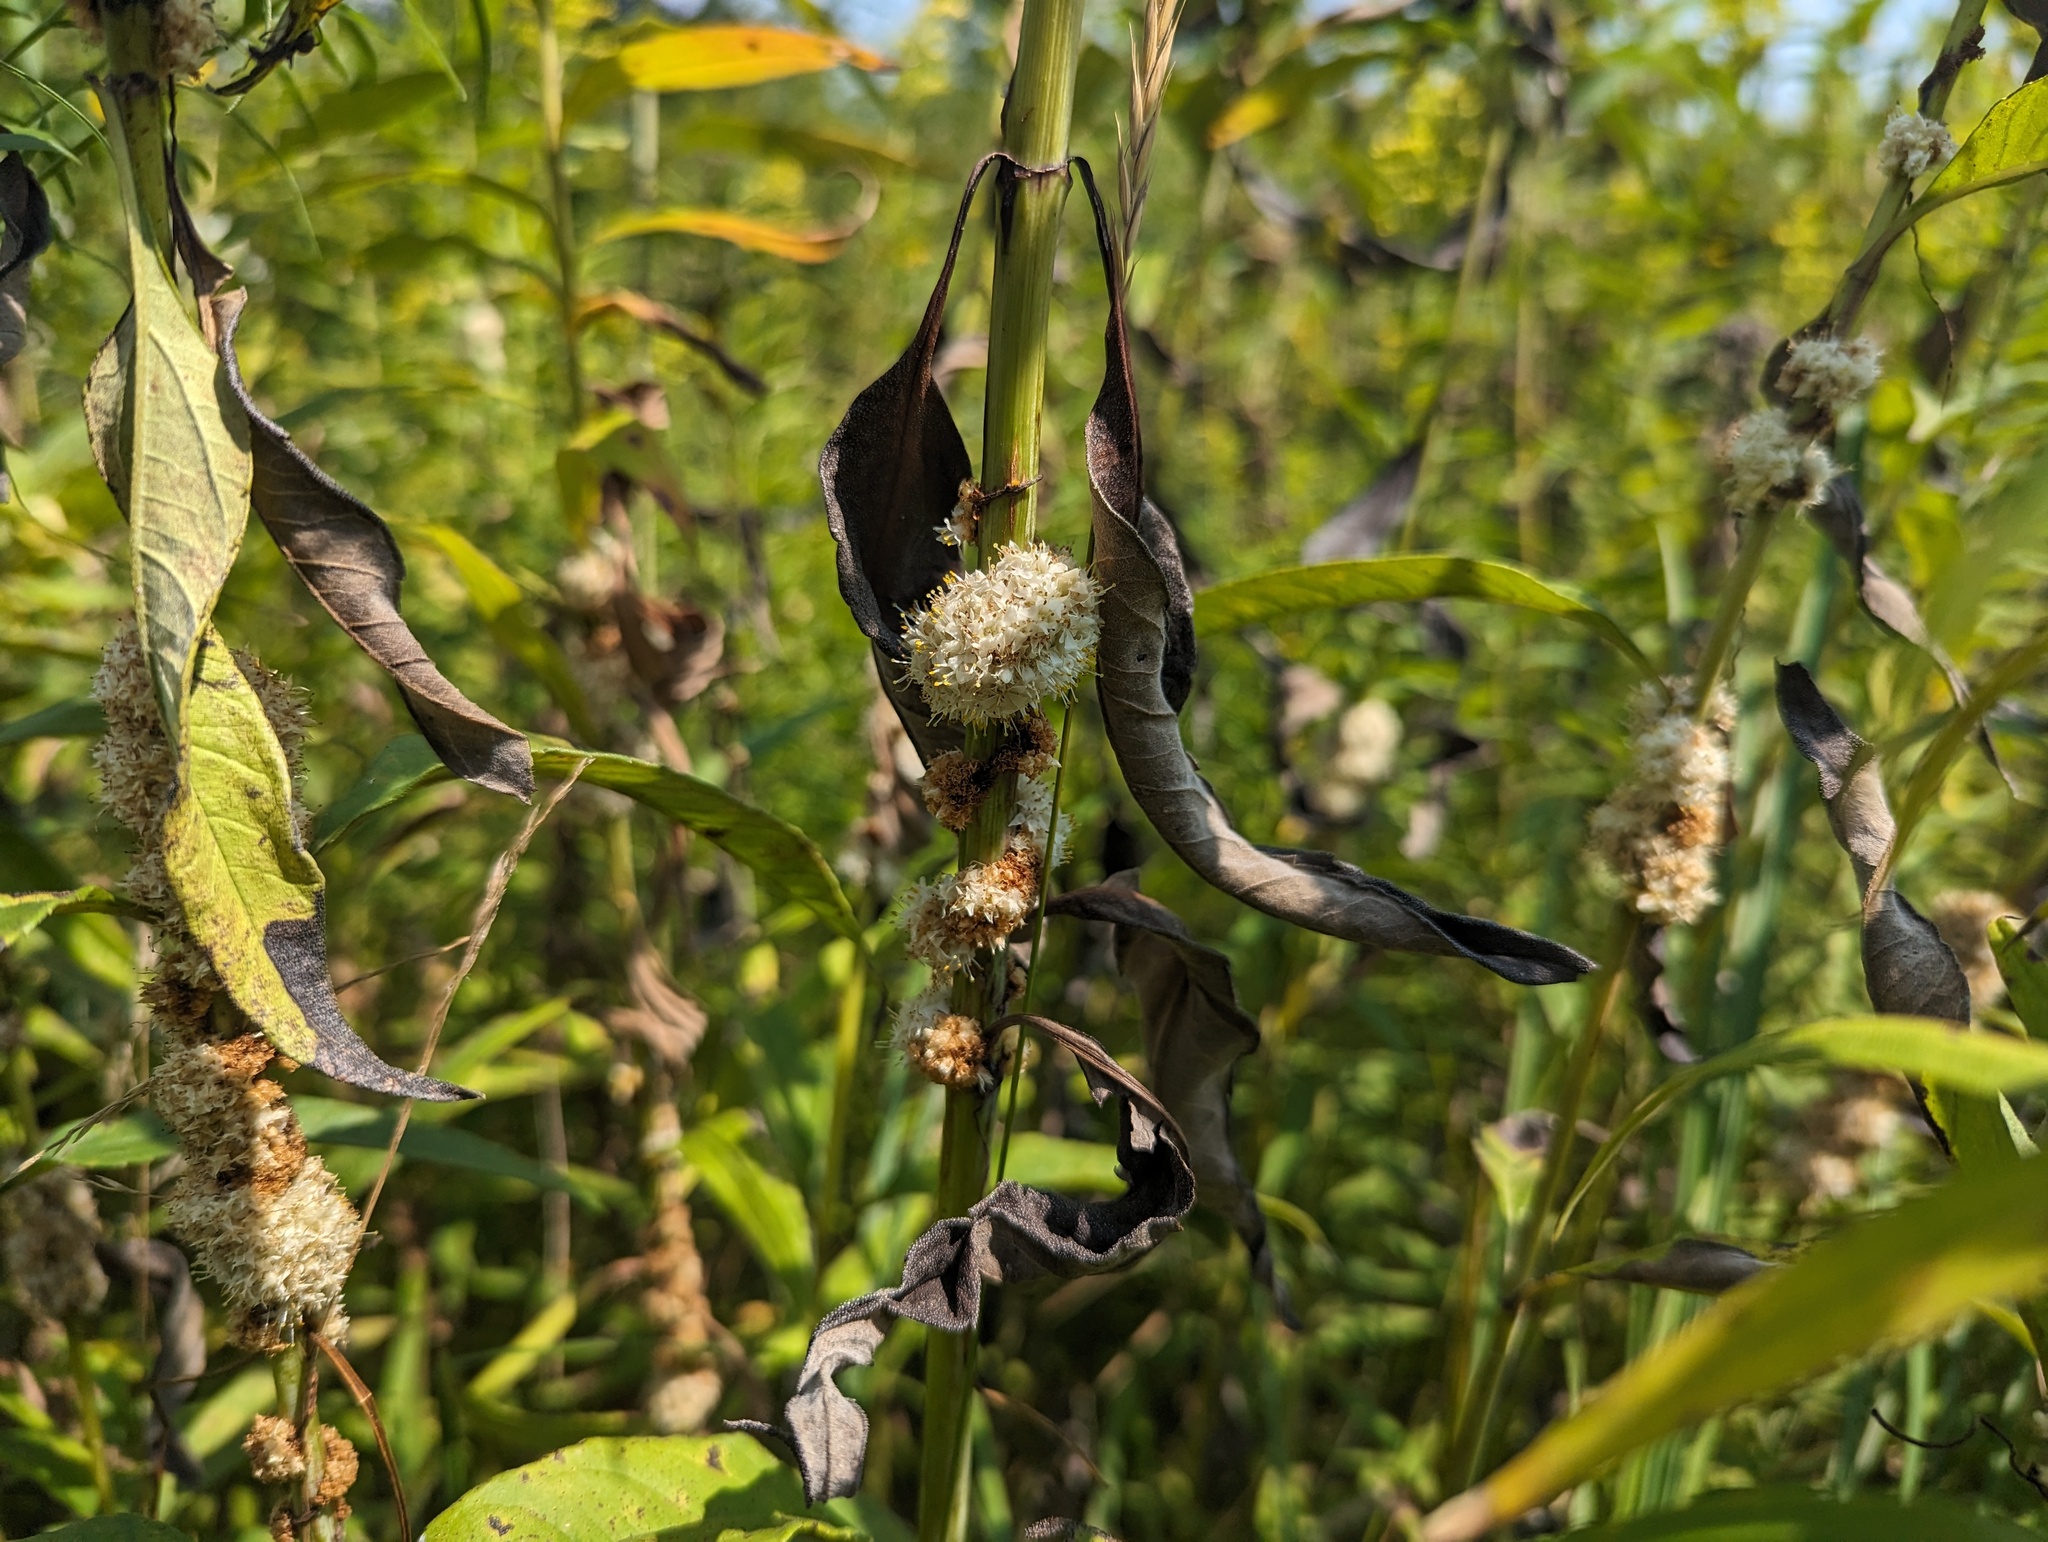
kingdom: Plantae
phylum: Tracheophyta
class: Magnoliopsida
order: Solanales
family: Convolvulaceae
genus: Cuscuta
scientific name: Cuscuta glomerata
